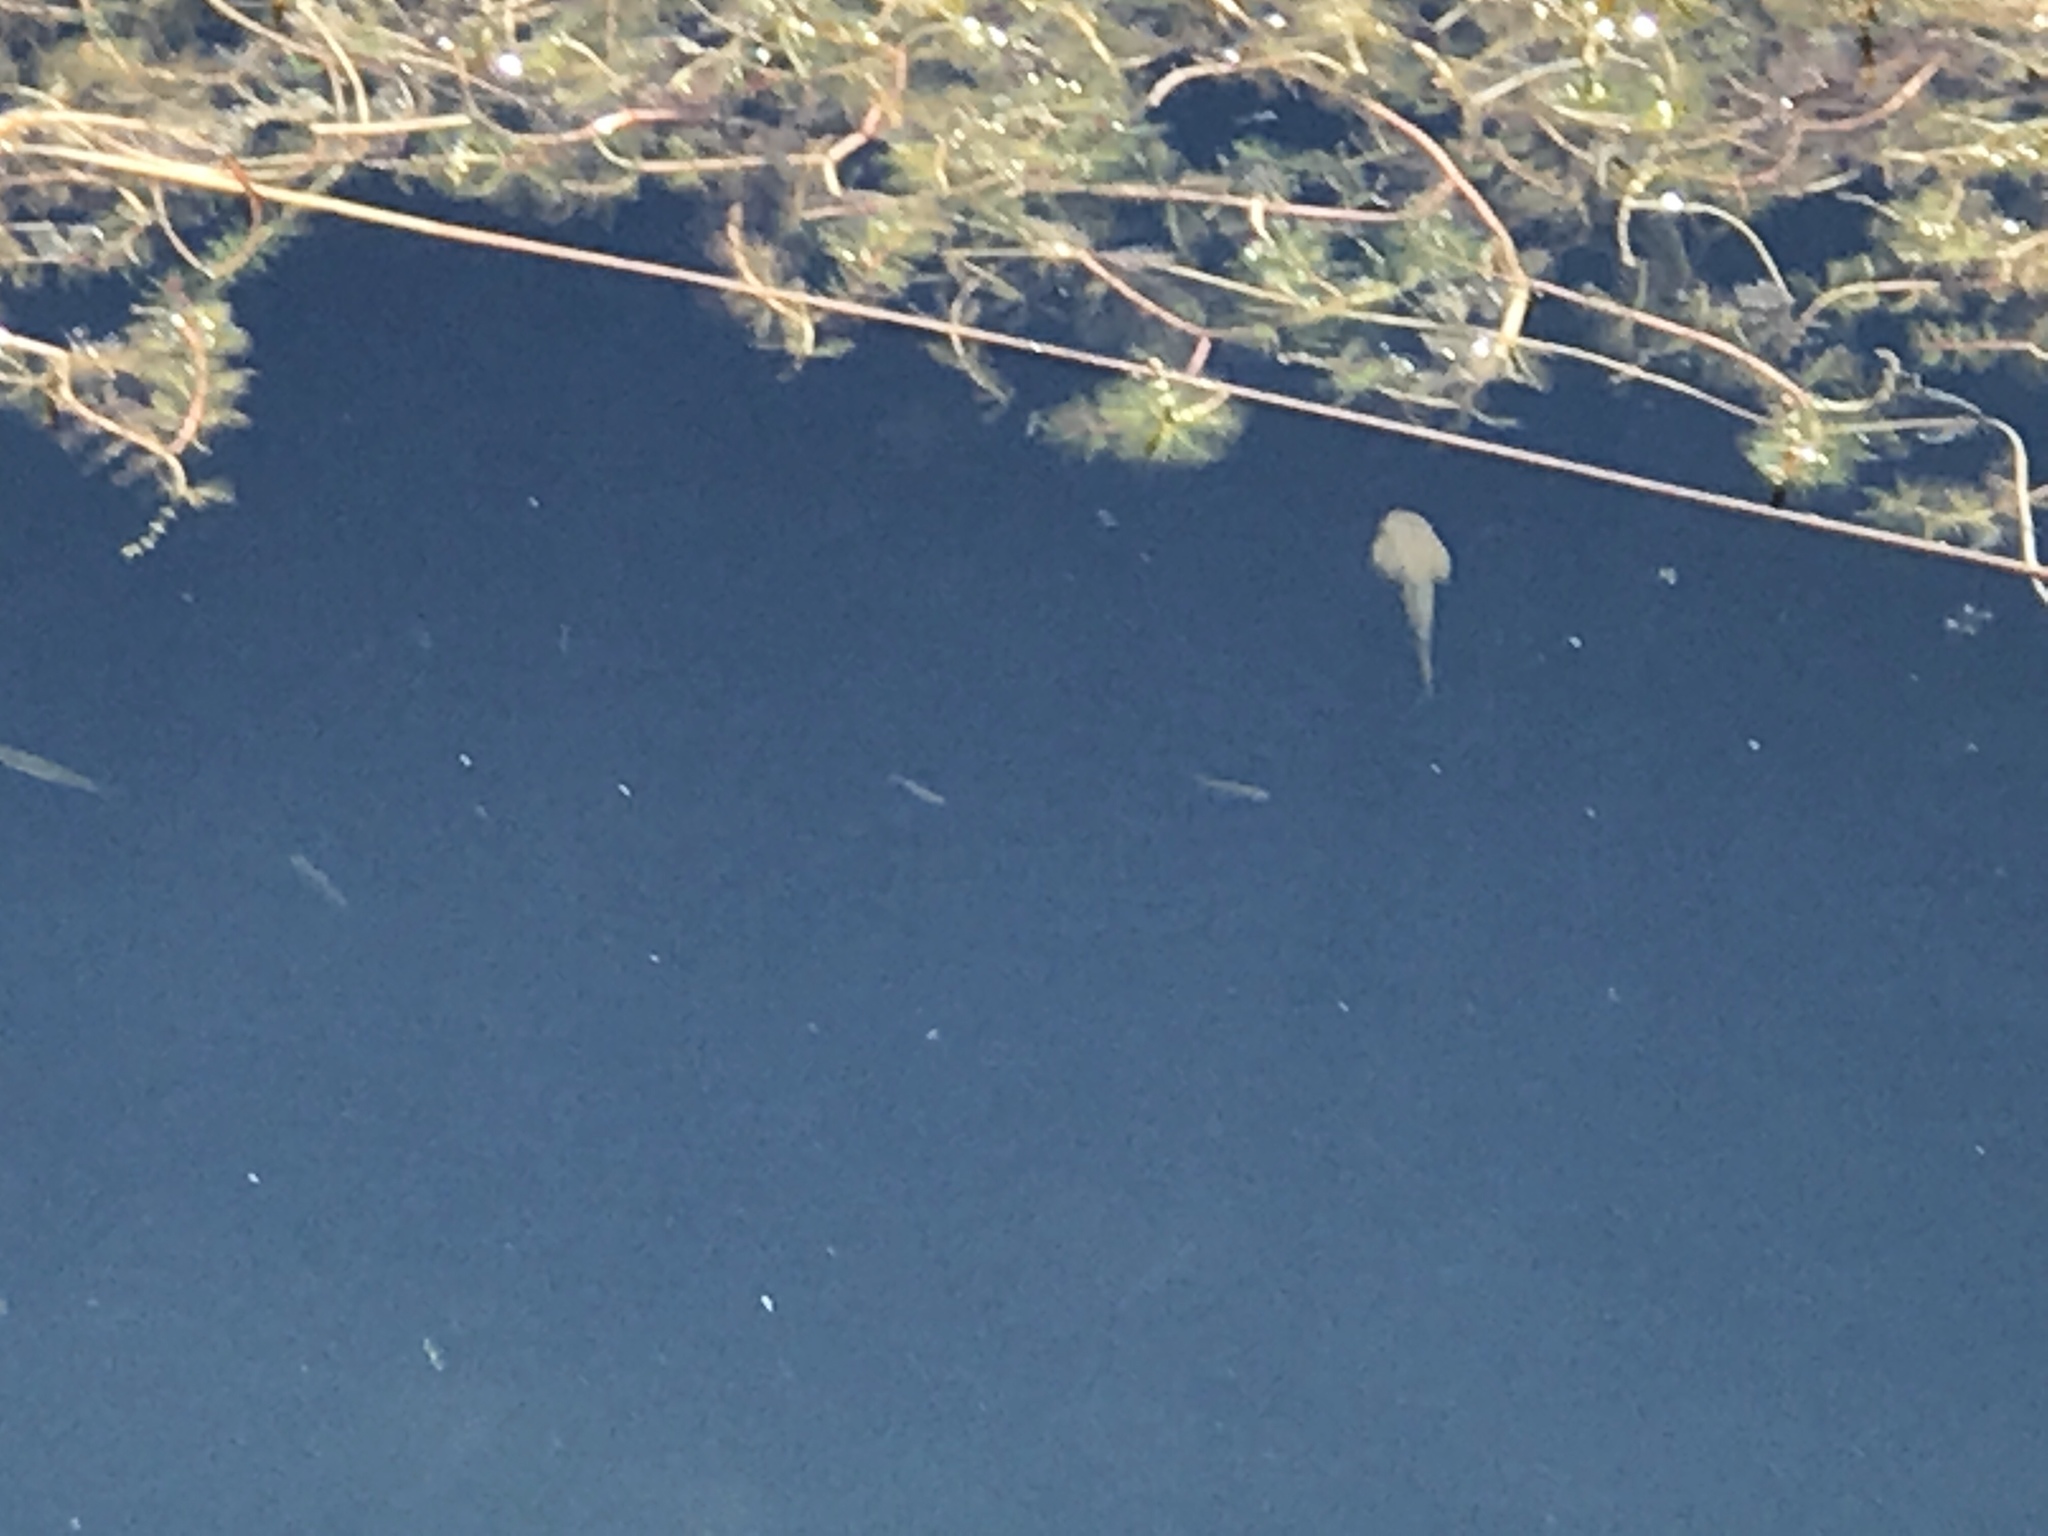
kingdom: Animalia
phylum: Chordata
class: Amphibia
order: Anura
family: Ranidae
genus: Lithobates
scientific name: Lithobates catesbeianus
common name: American bullfrog
